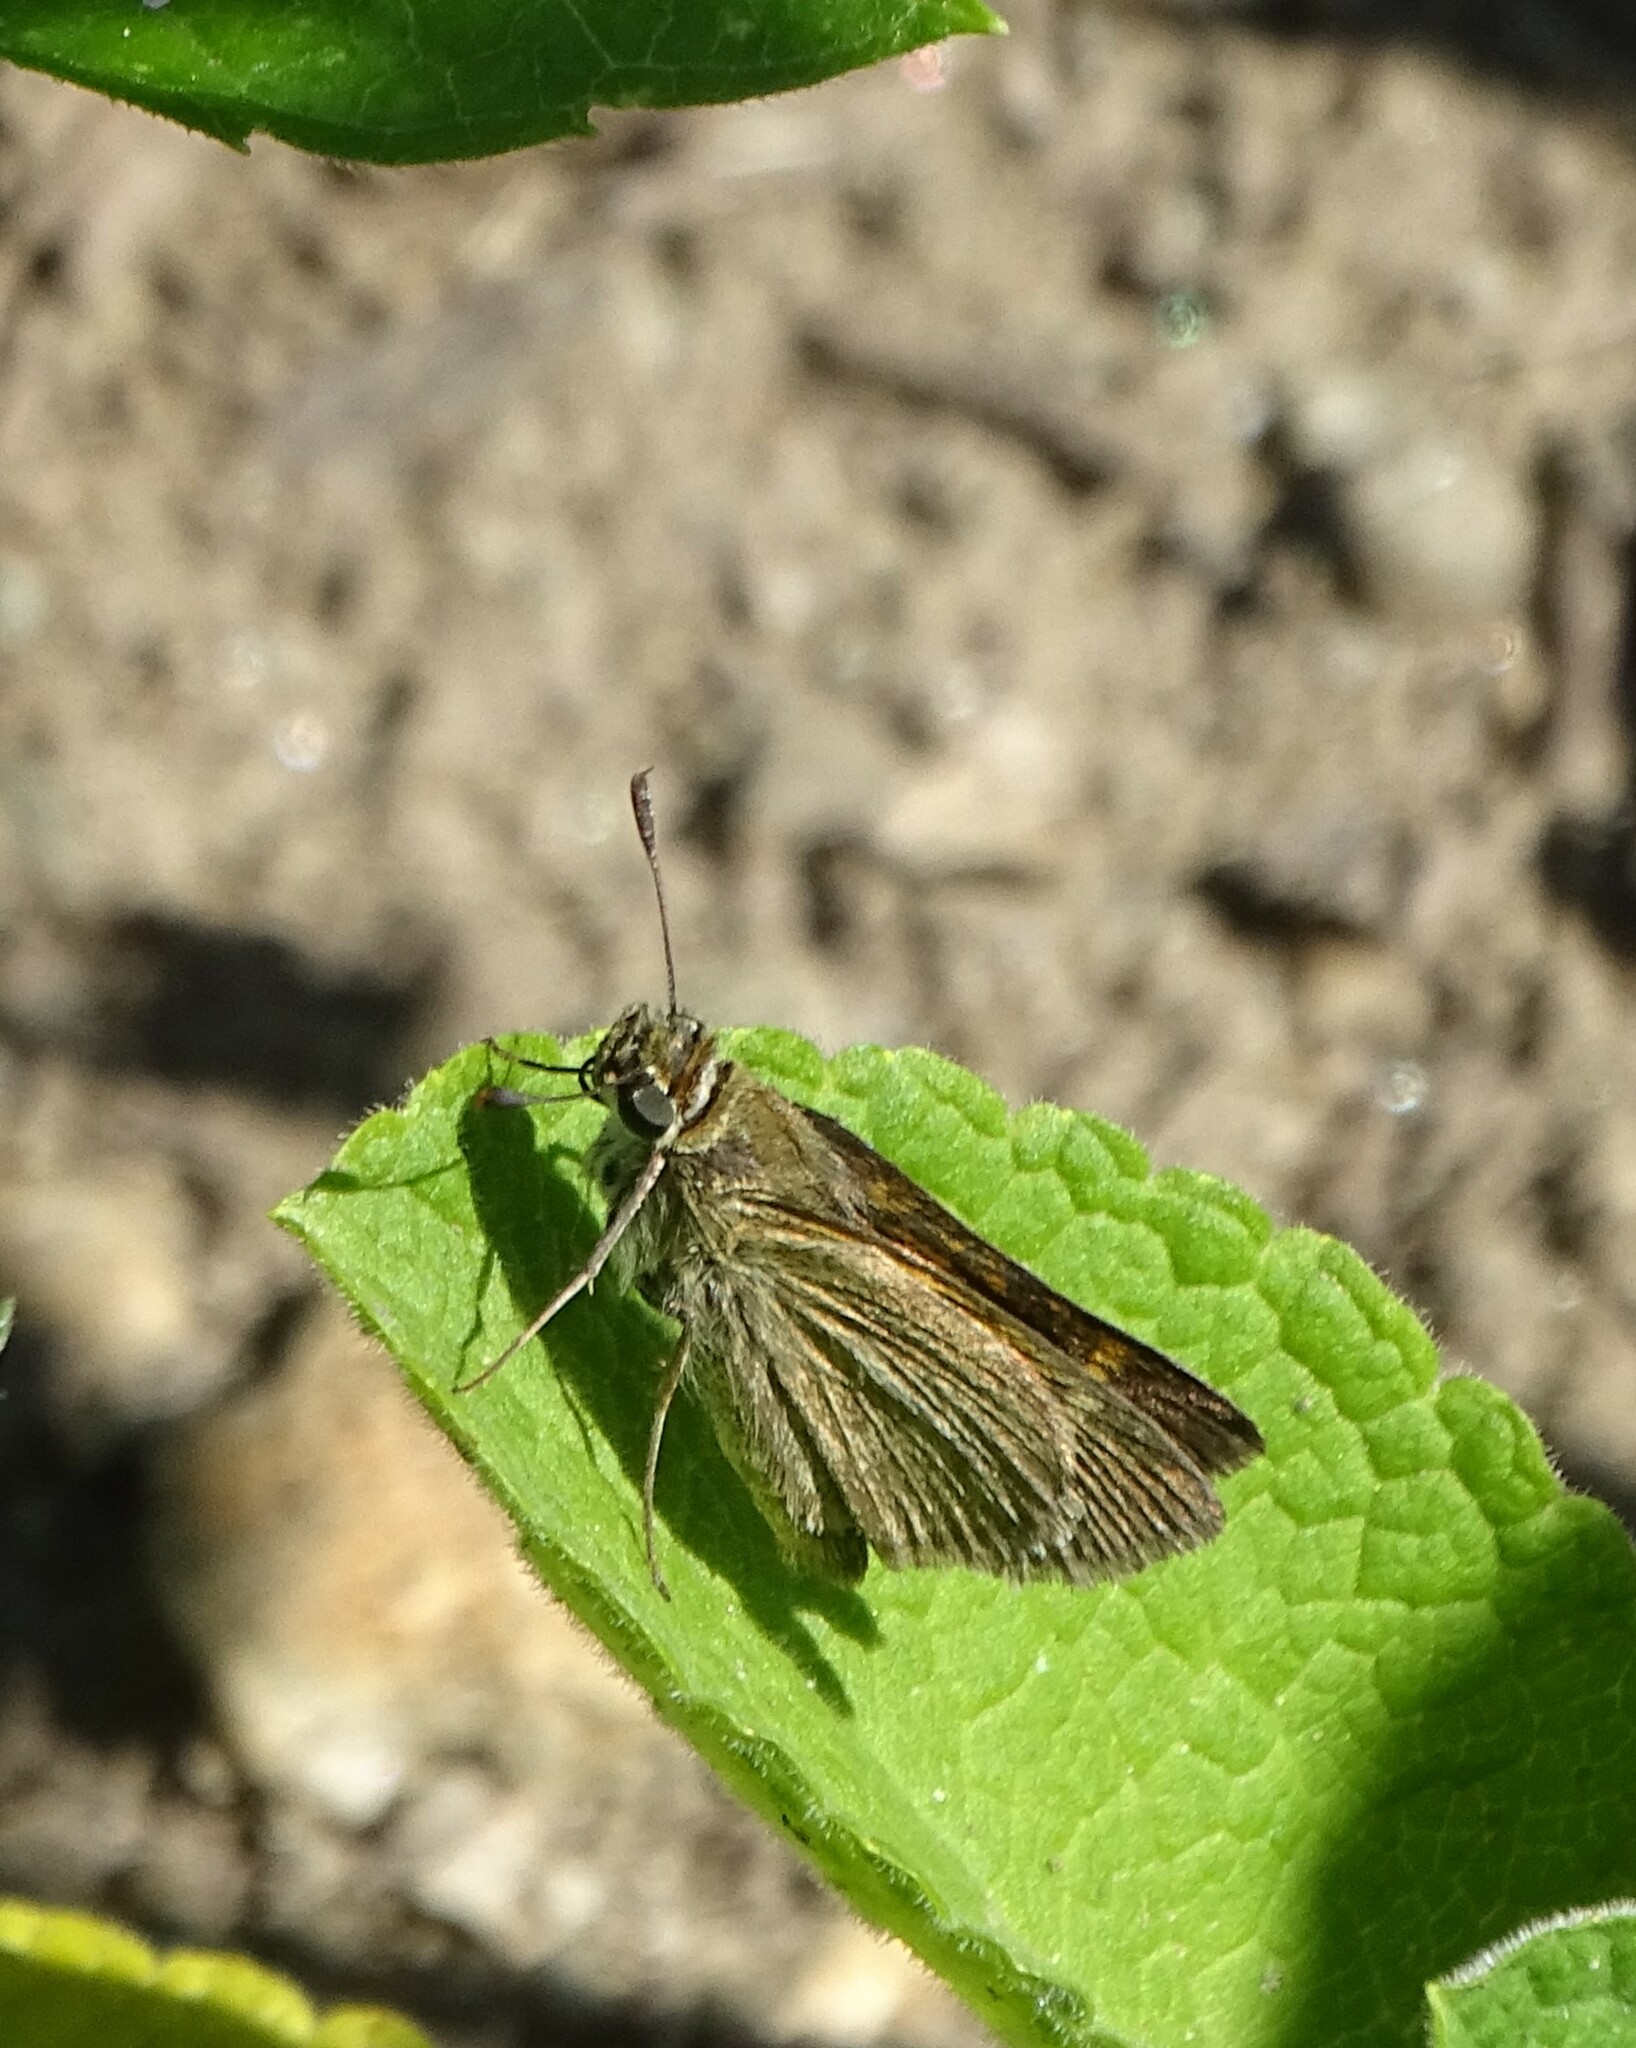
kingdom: Animalia
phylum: Arthropoda
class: Insecta
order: Lepidoptera
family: Hesperiidae
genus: Polites
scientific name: Polites themistocles
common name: Tawny-edged skipper
